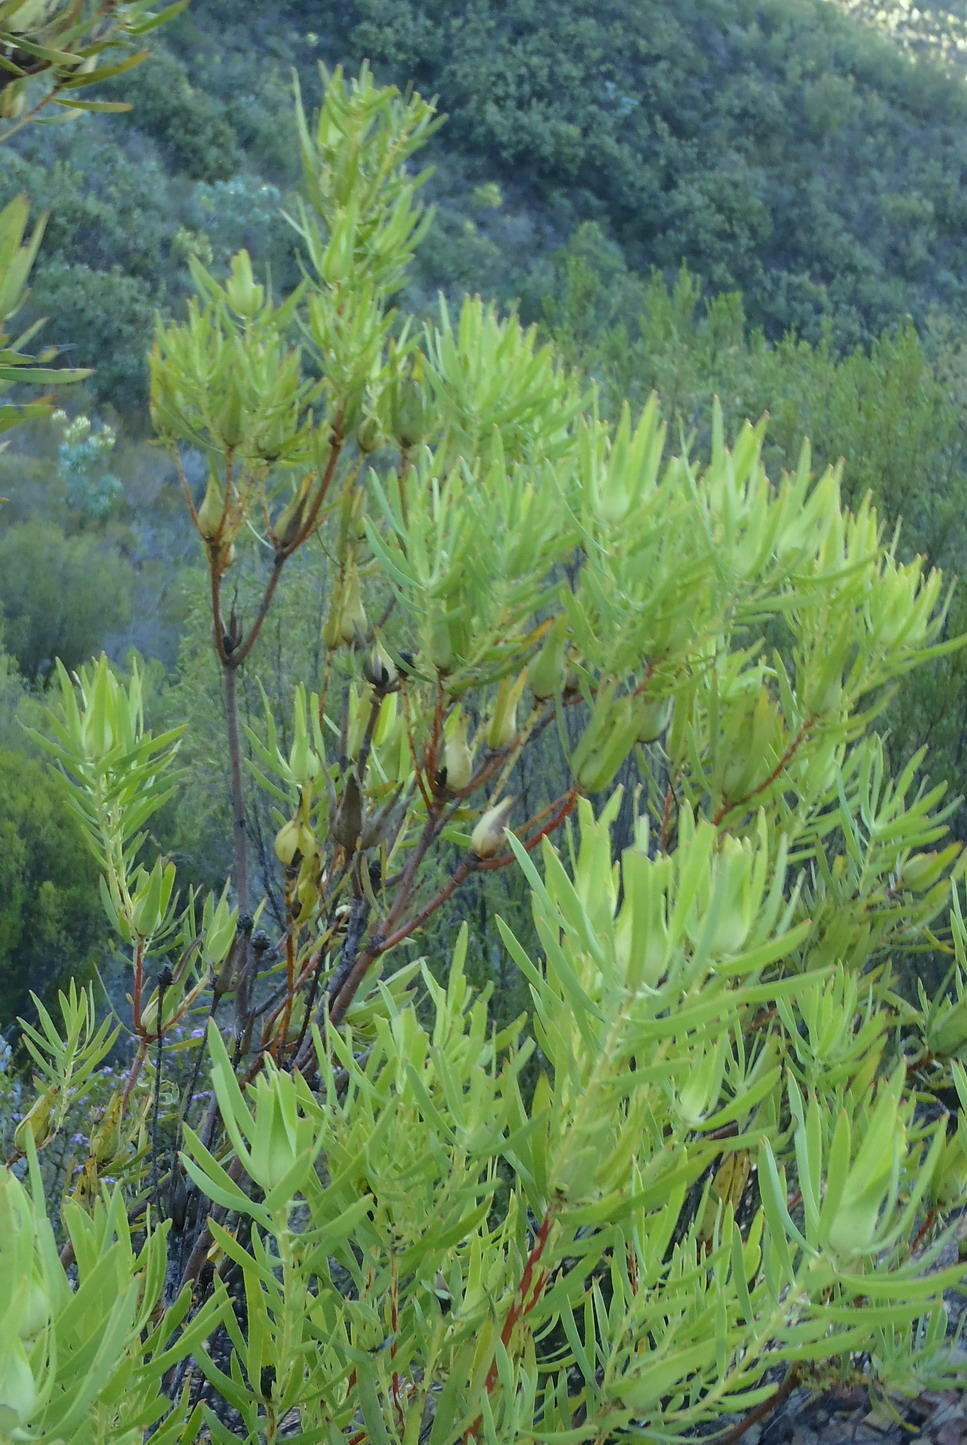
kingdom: Plantae
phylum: Tracheophyta
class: Magnoliopsida
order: Proteales
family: Proteaceae
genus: Leucadendron
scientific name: Leucadendron salignum
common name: Common sunshine conebush
